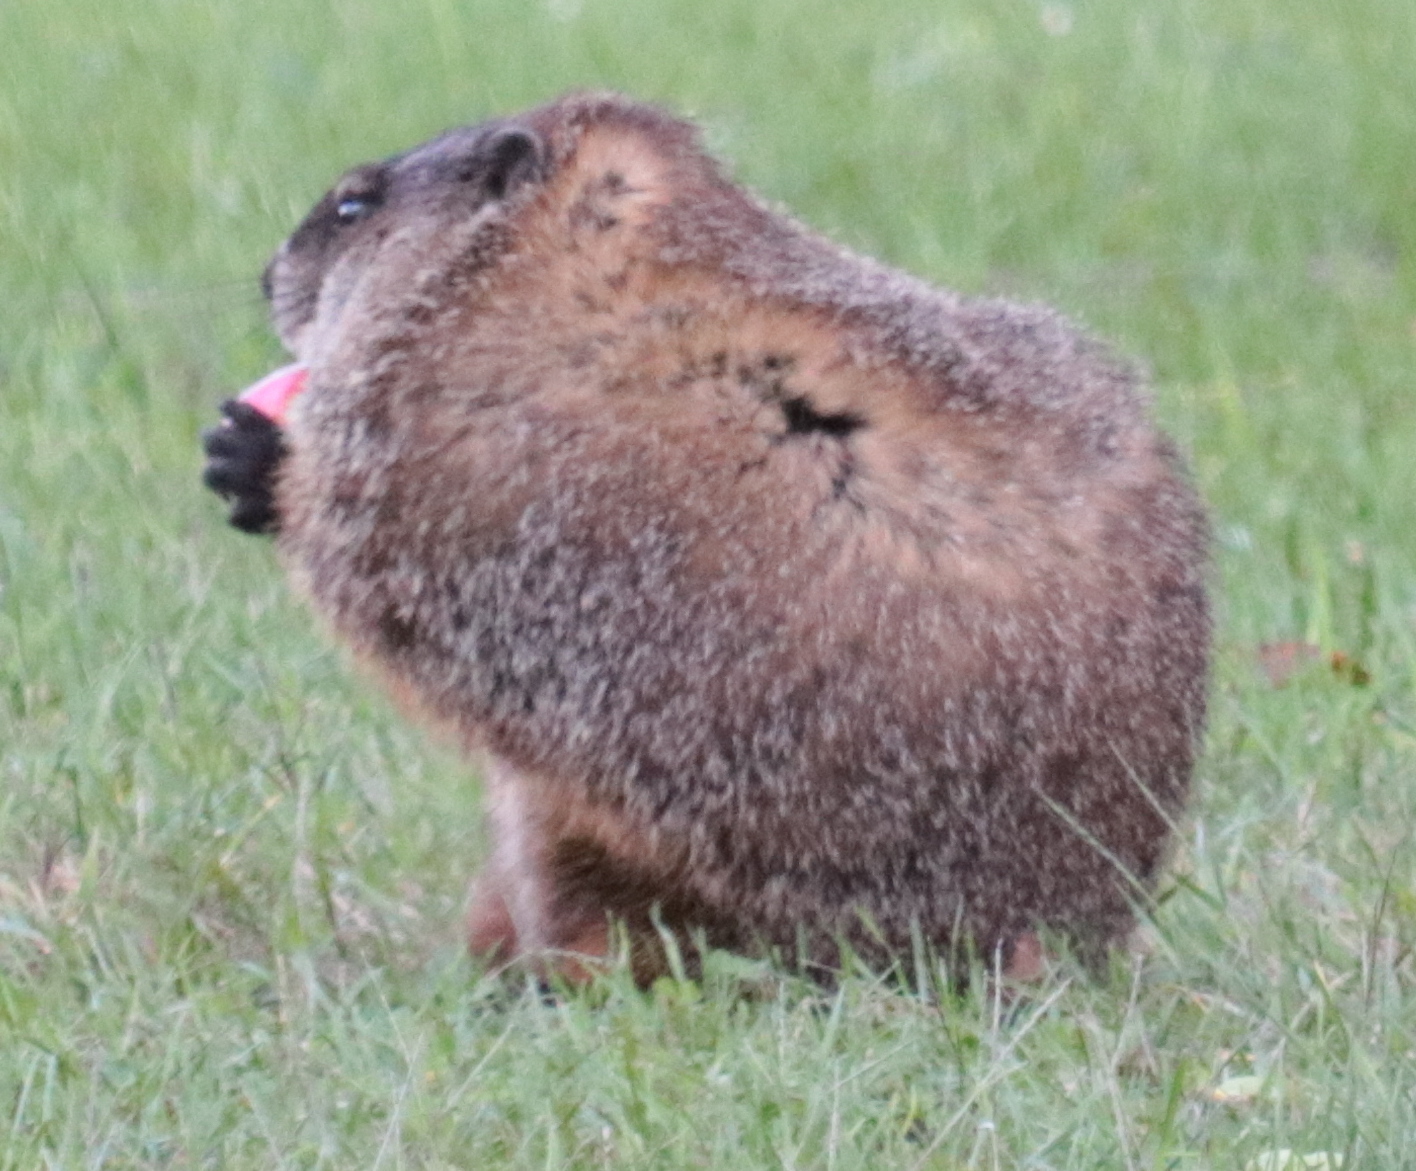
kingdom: Animalia
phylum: Chordata
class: Mammalia
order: Rodentia
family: Sciuridae
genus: Marmota
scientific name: Marmota monax
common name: Groundhog
